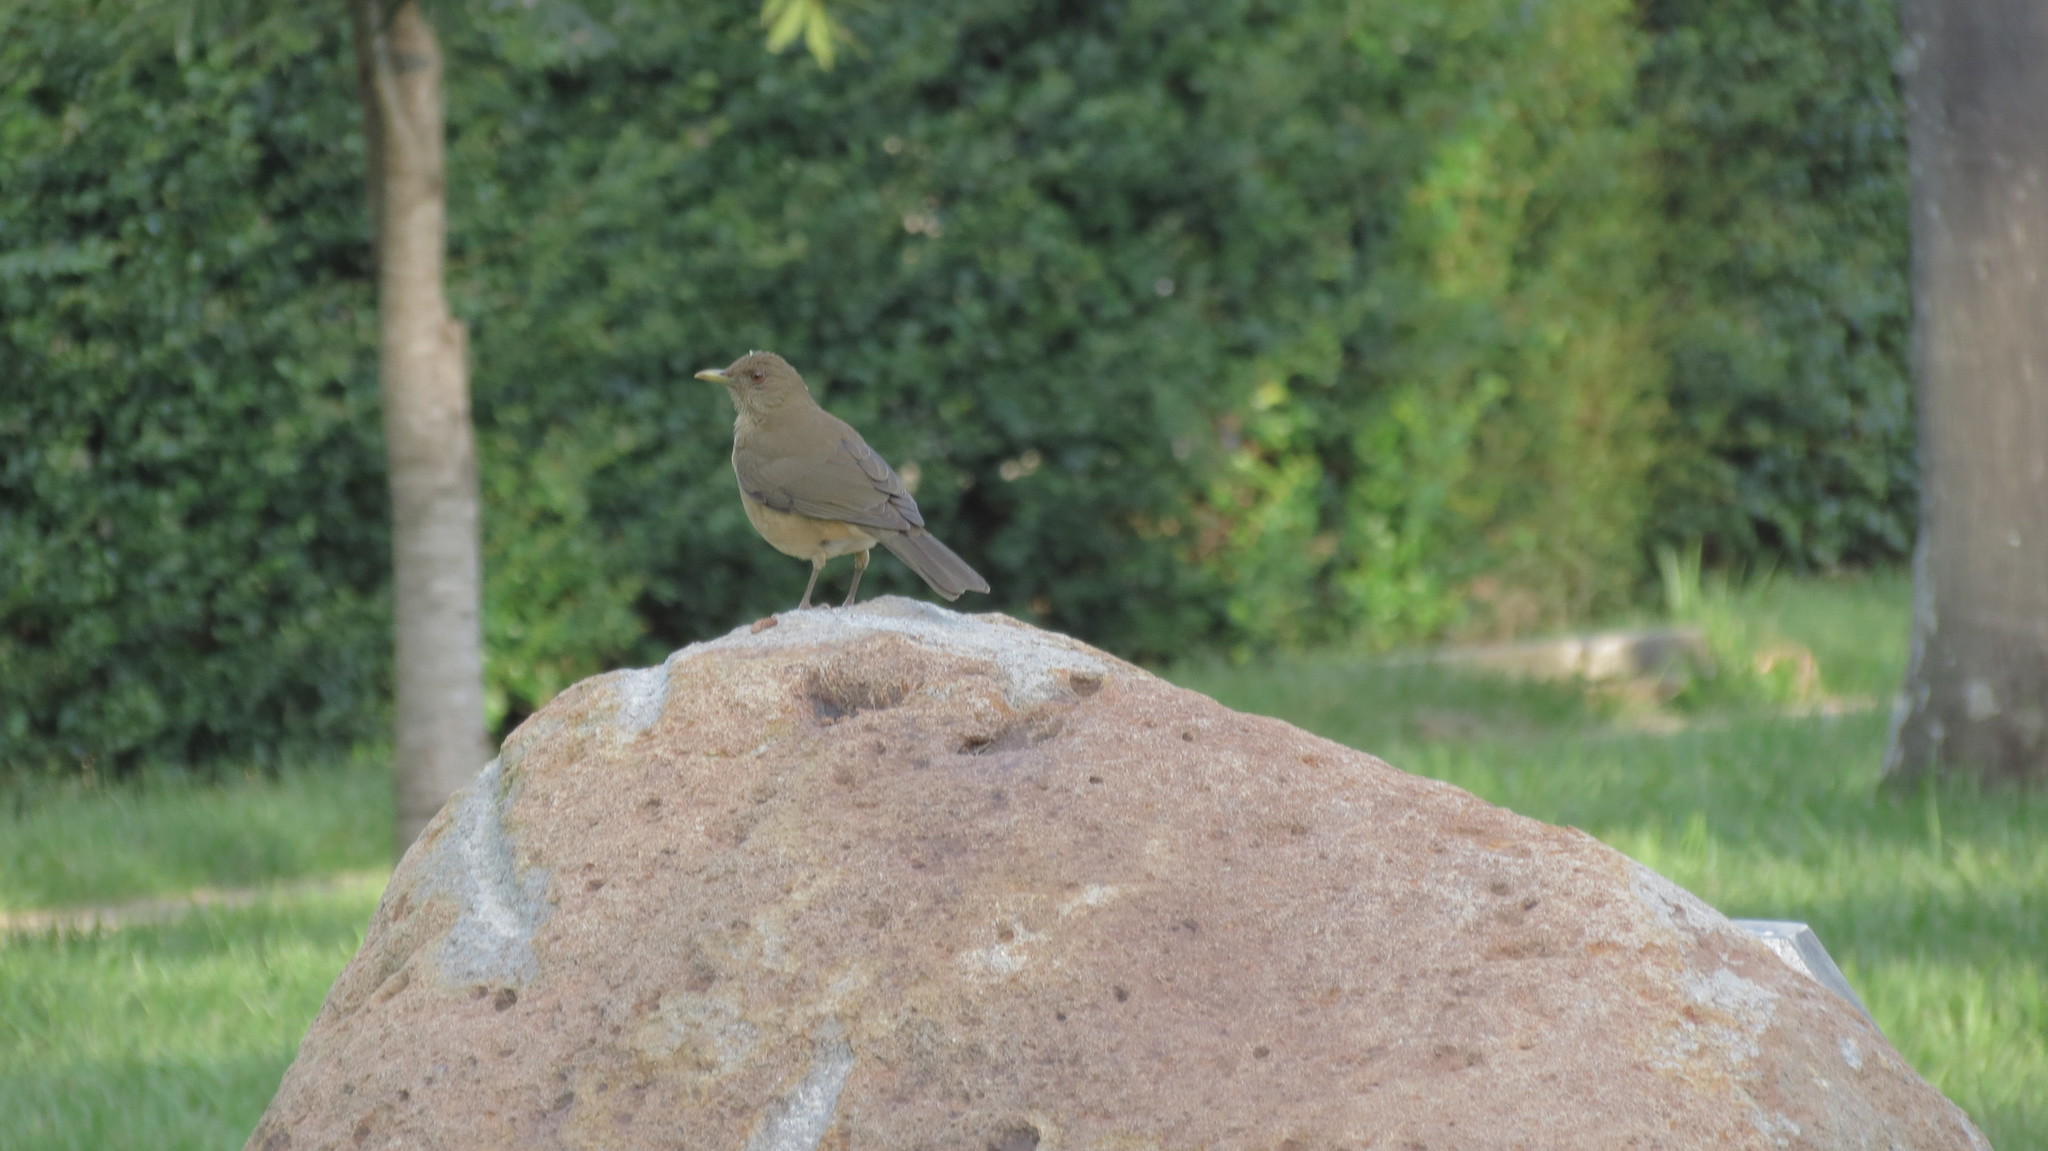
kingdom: Animalia
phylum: Chordata
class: Aves
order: Passeriformes
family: Turdidae
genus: Turdus
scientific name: Turdus grayi
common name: Clay-colored thrush
